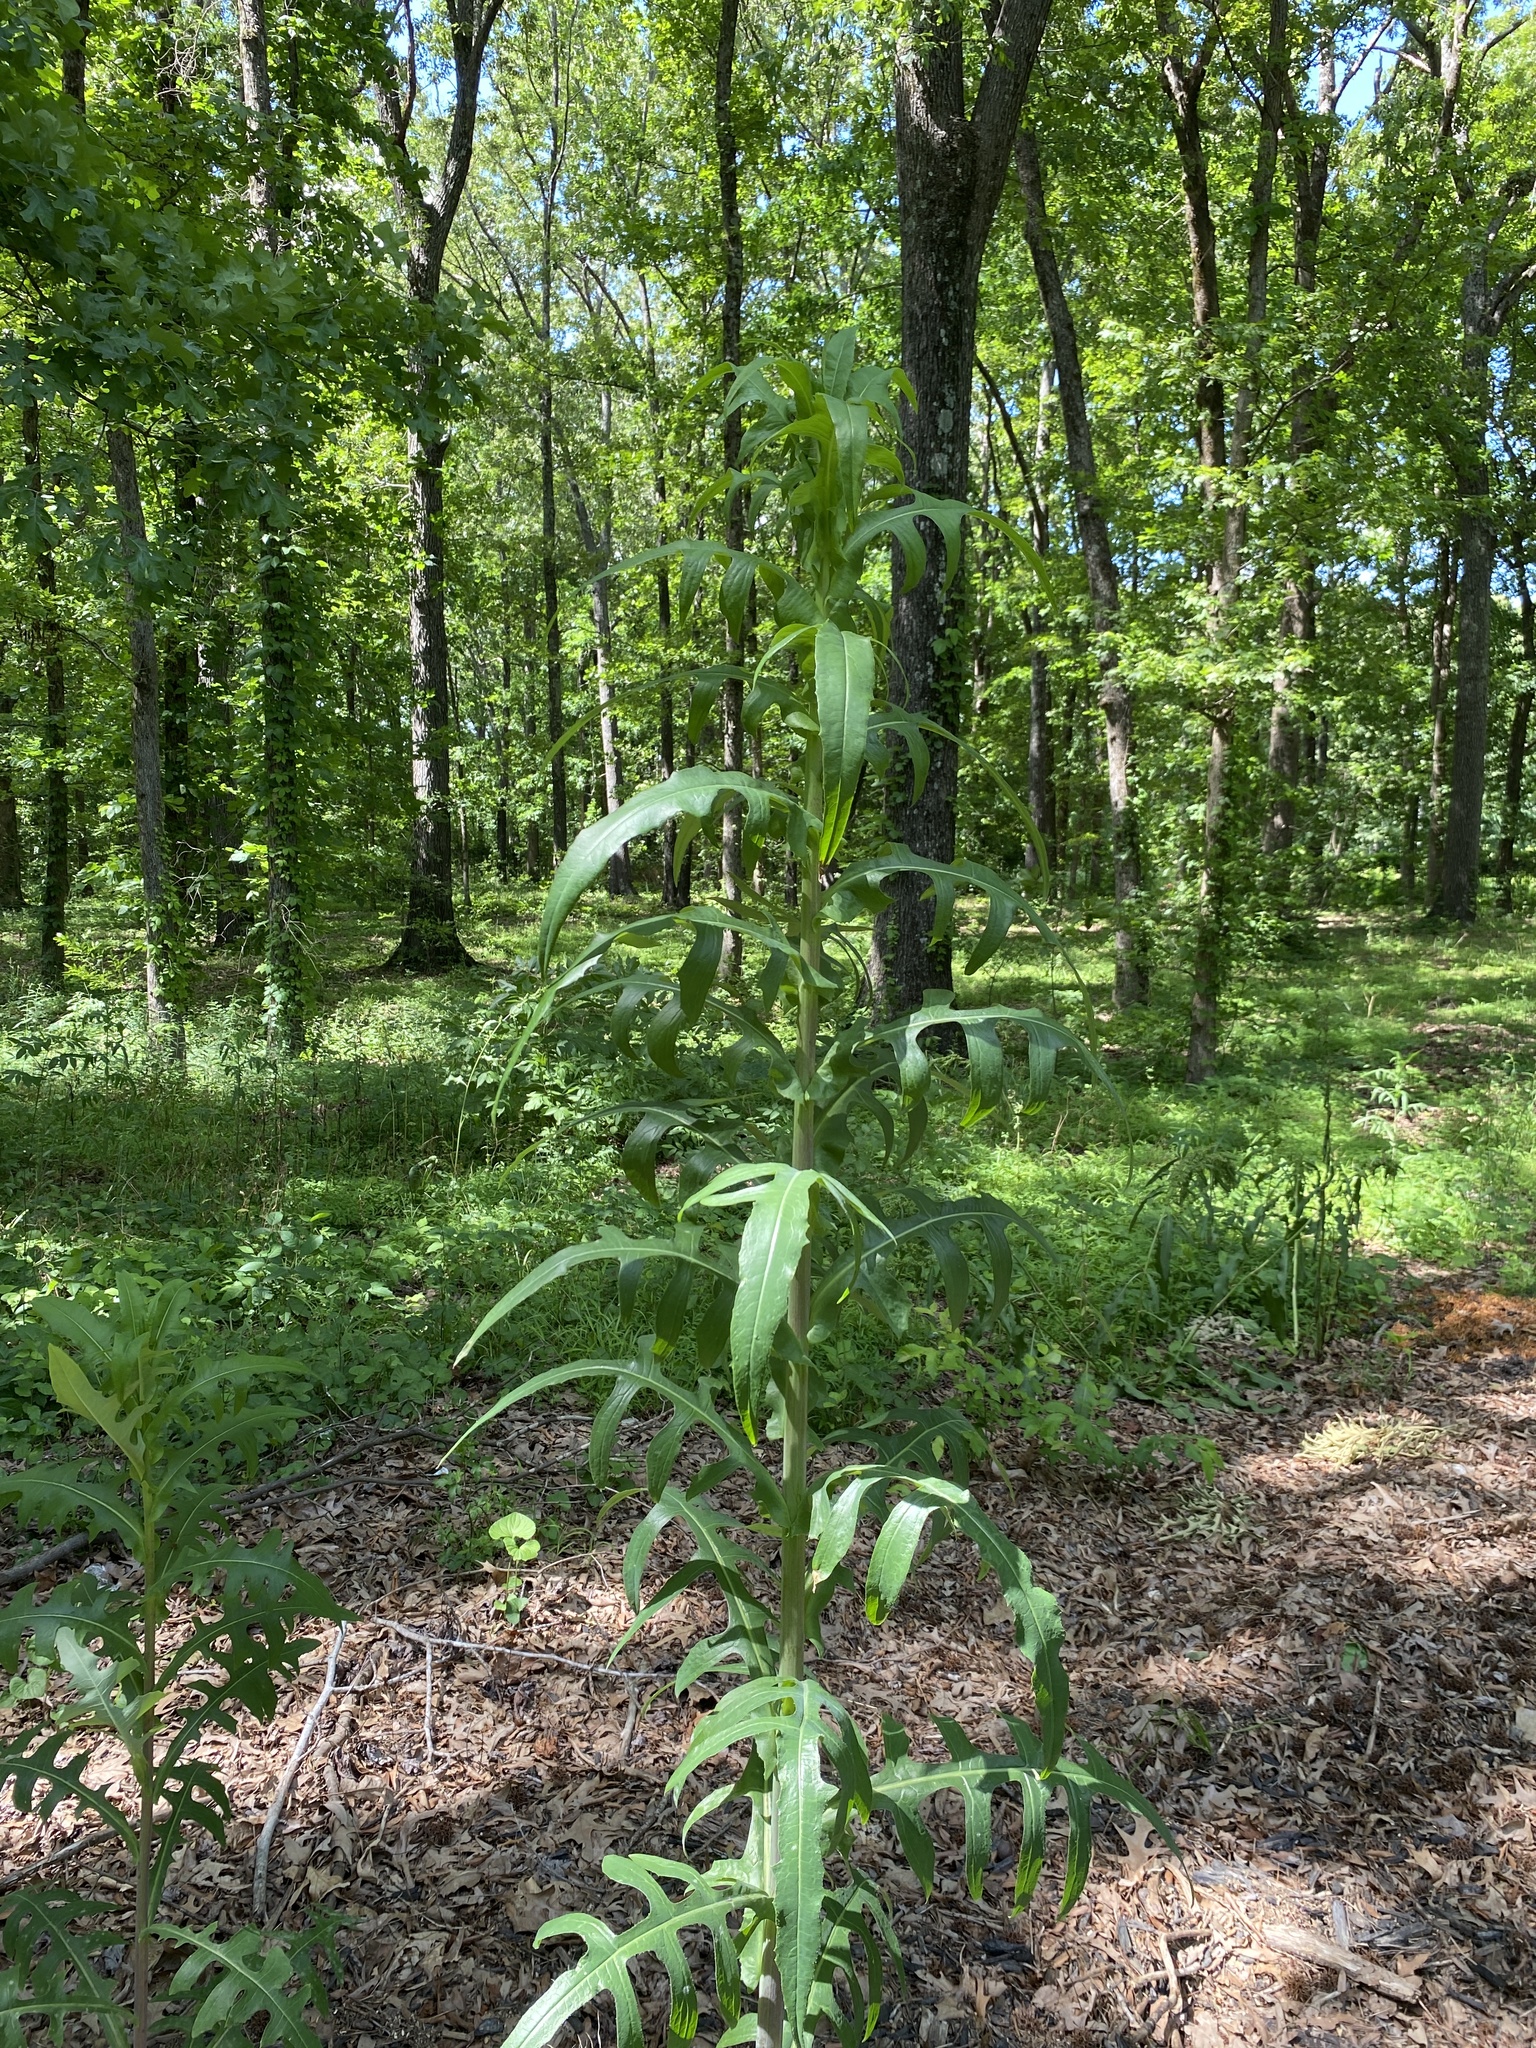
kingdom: Plantae
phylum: Tracheophyta
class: Magnoliopsida
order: Asterales
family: Asteraceae
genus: Lactuca
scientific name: Lactuca canadensis
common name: Canada lettuce
